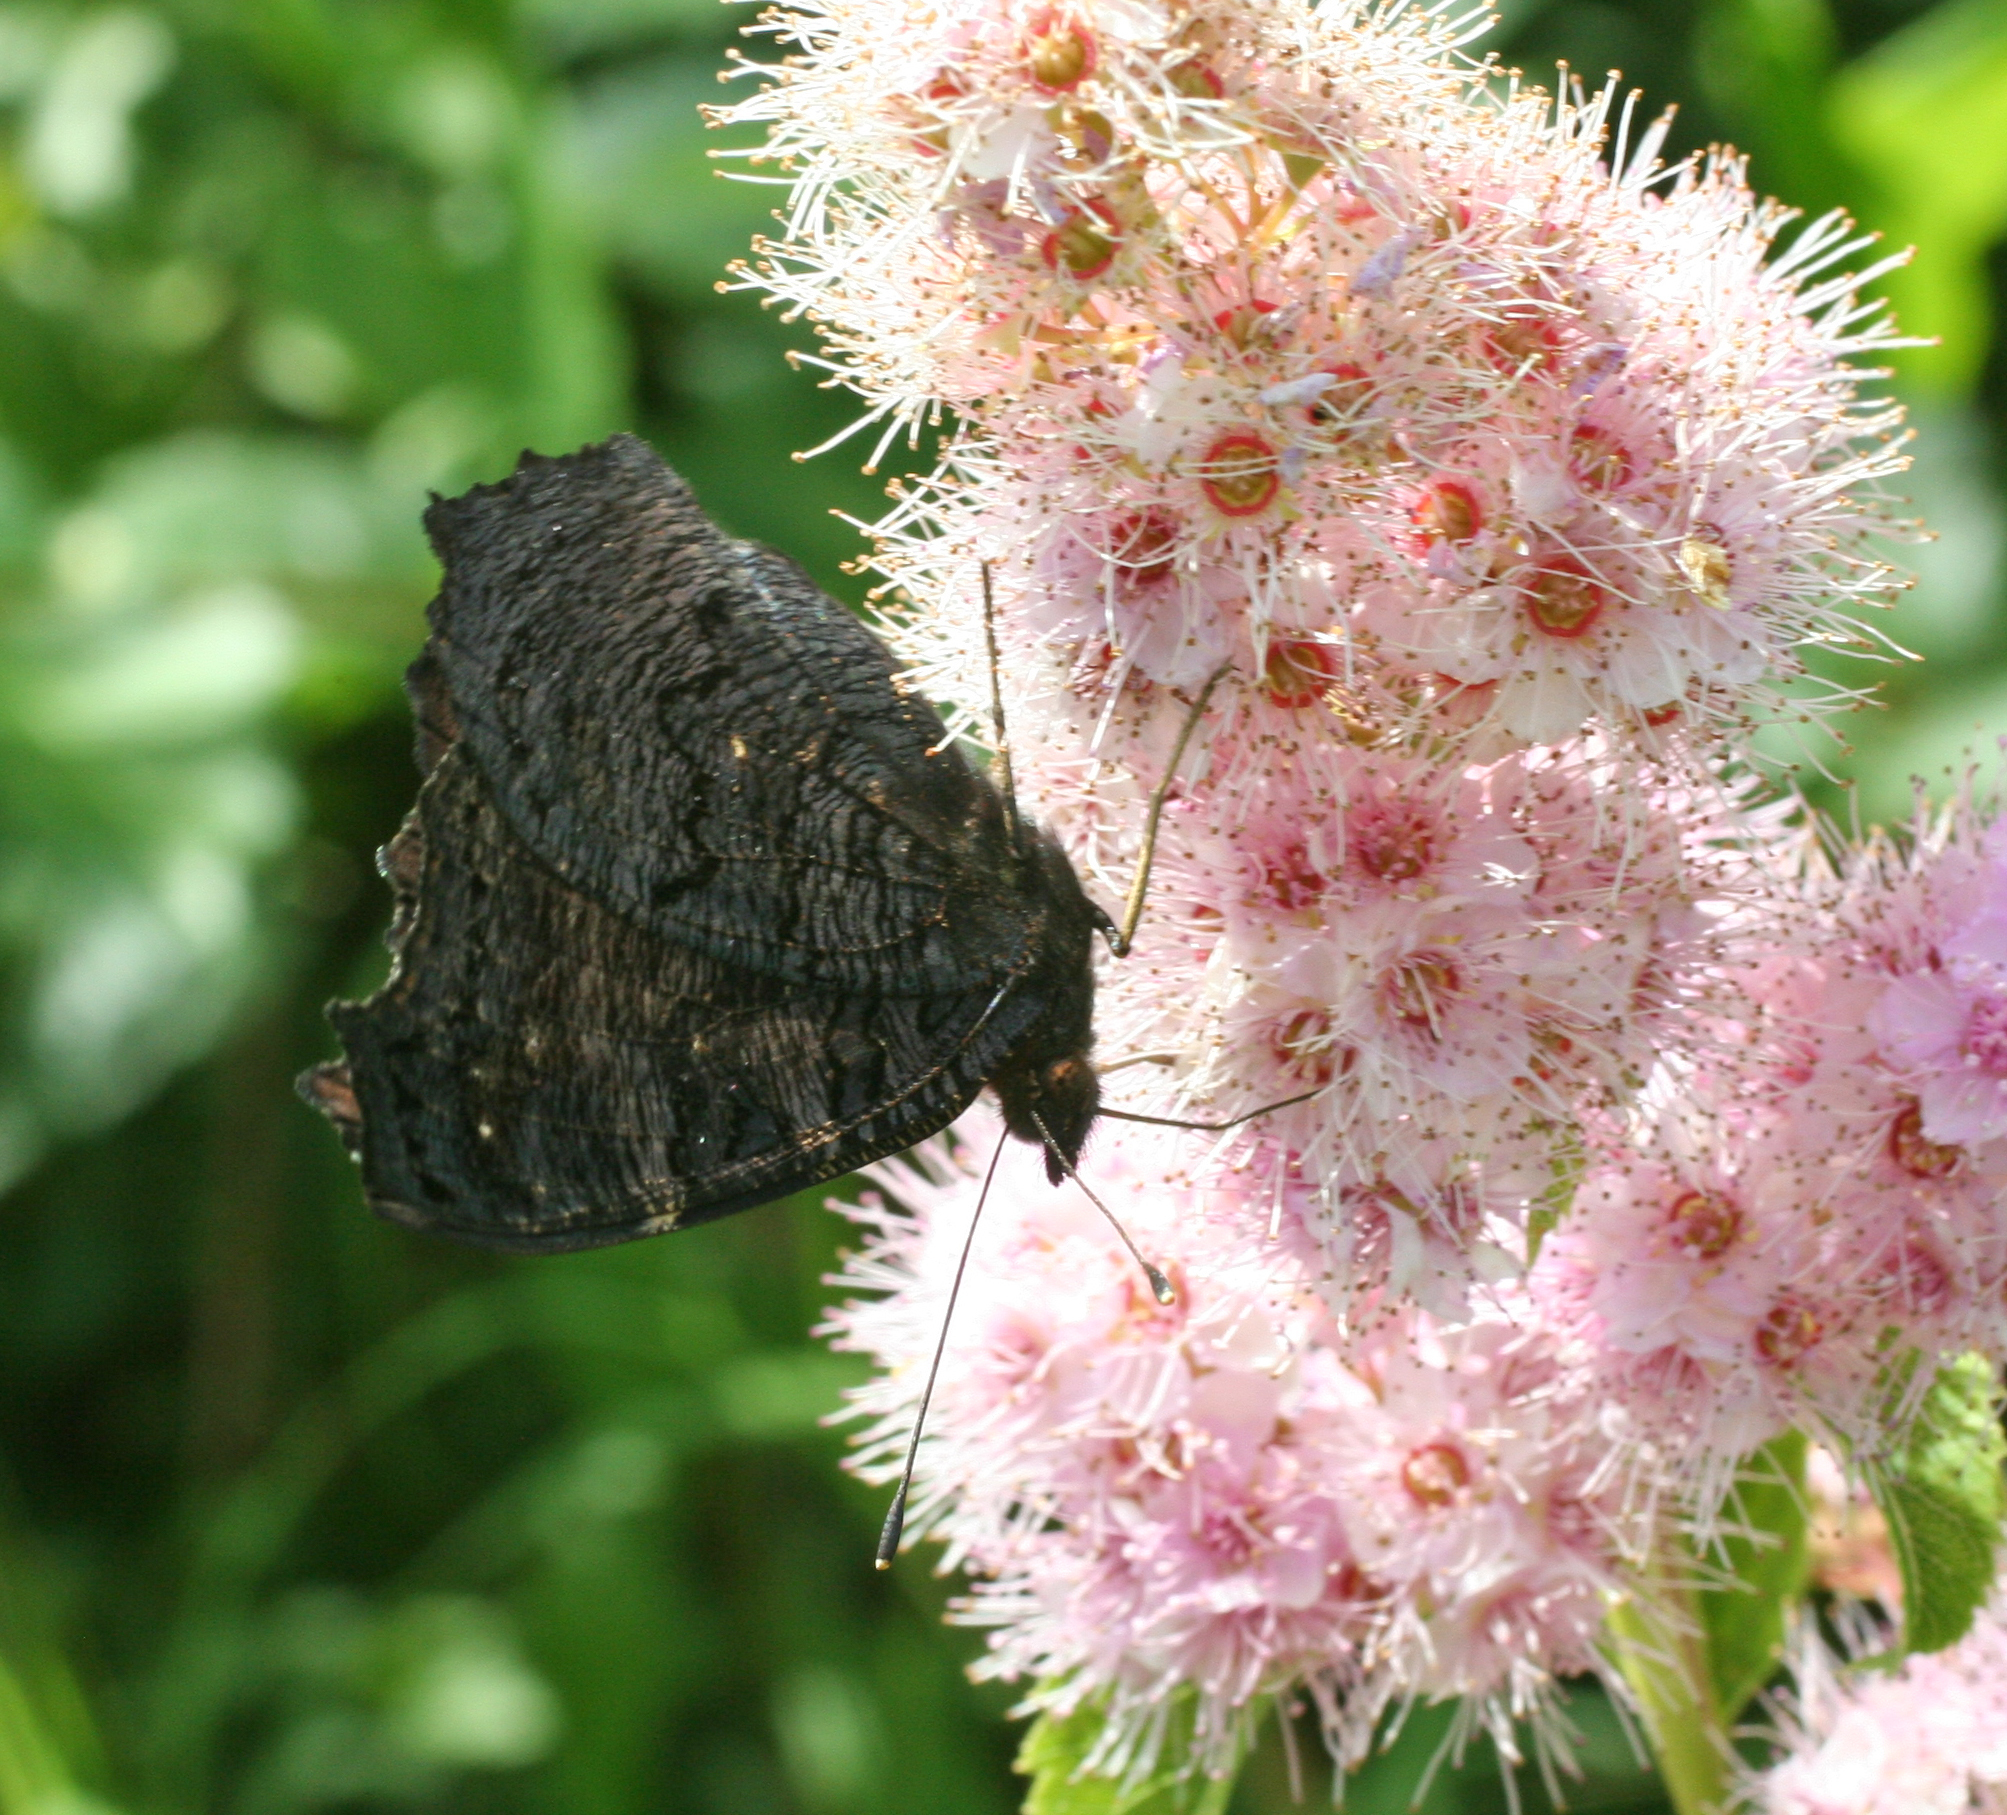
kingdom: Animalia
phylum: Arthropoda
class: Insecta
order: Lepidoptera
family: Nymphalidae
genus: Aglais
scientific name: Aglais io
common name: Peacock
